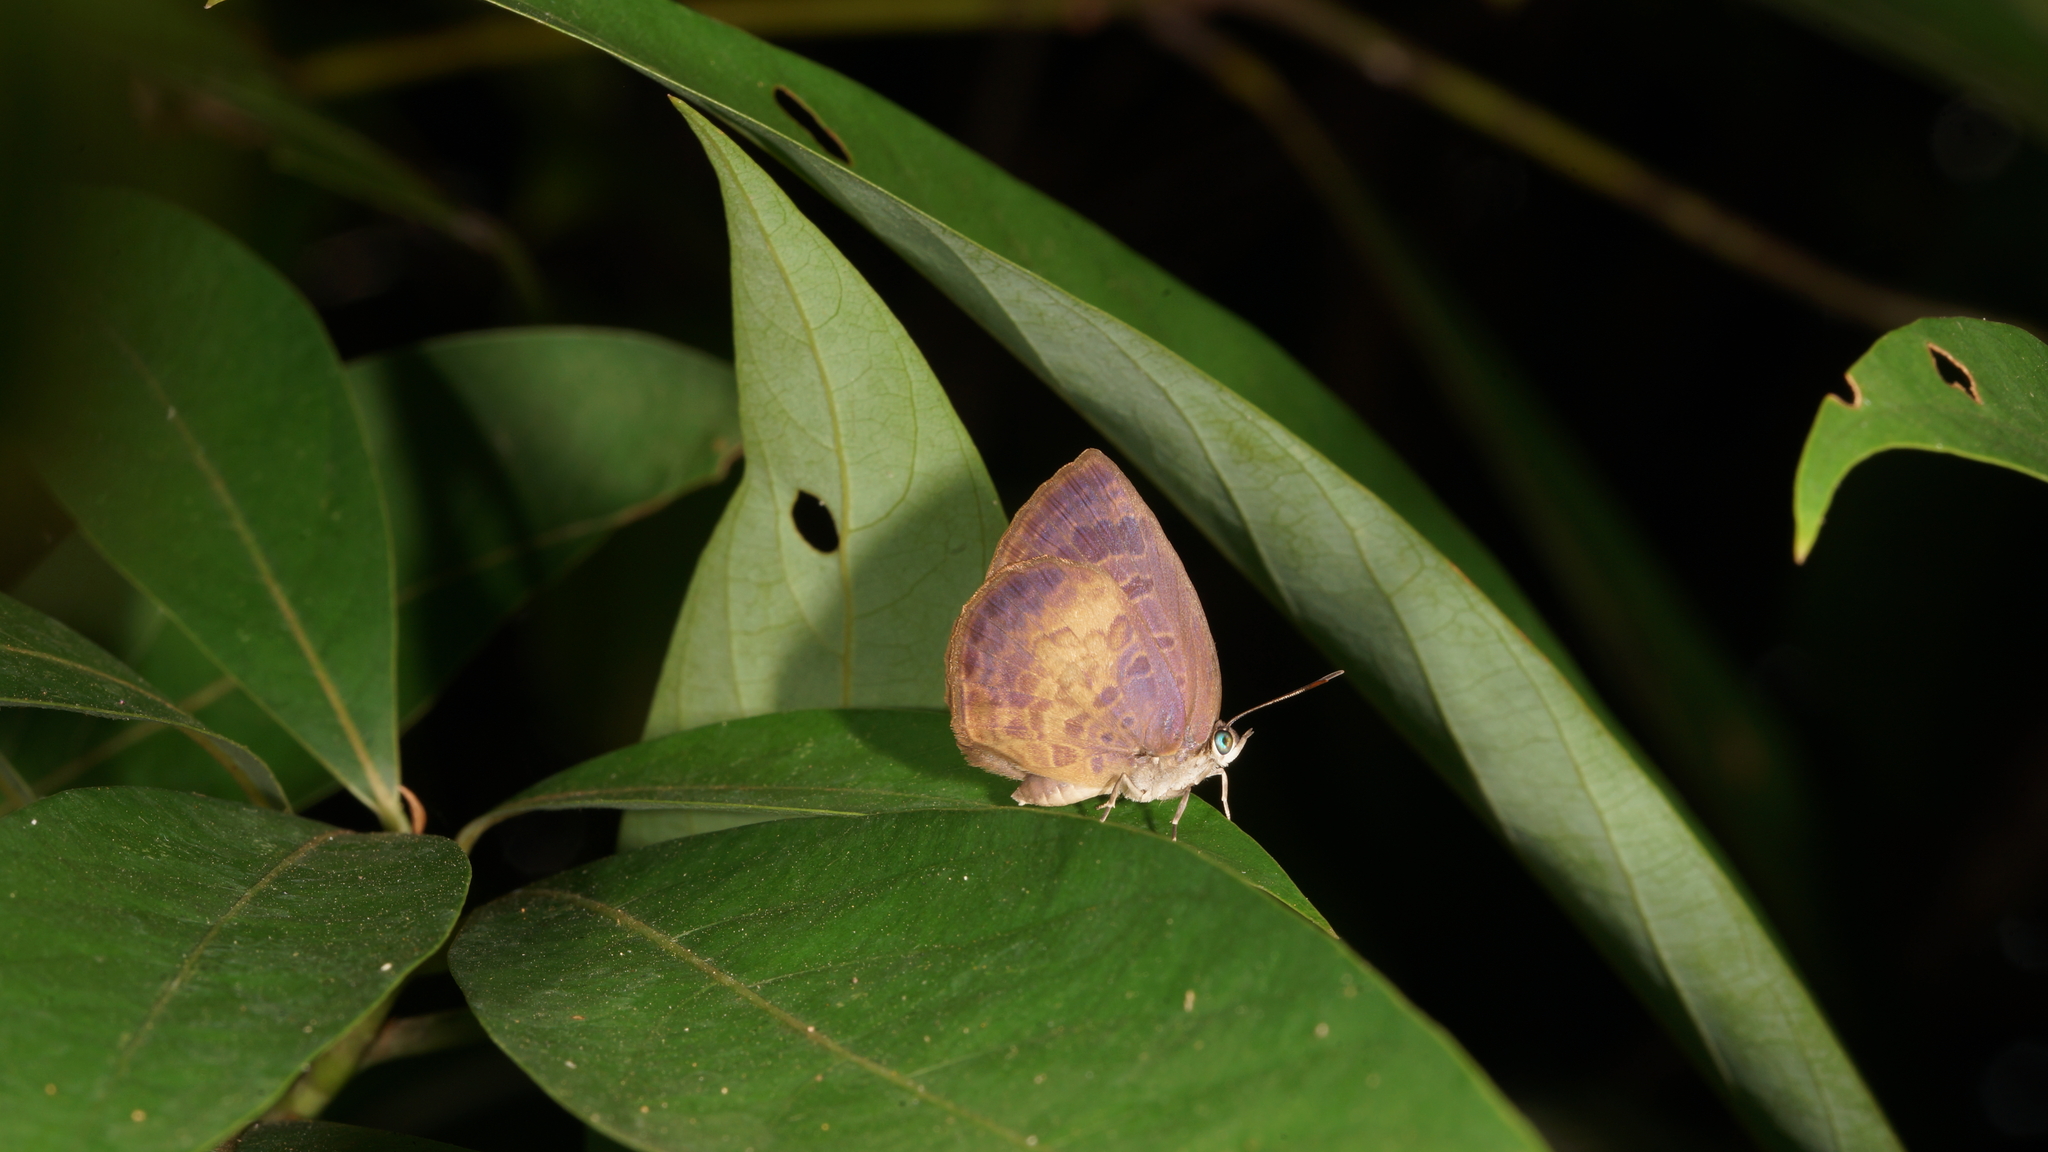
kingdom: Animalia
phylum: Arthropoda
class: Insecta
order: Lepidoptera
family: Lycaenidae
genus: Arhopala
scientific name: Arhopala perimuta
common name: Yellowdisc oakblue
